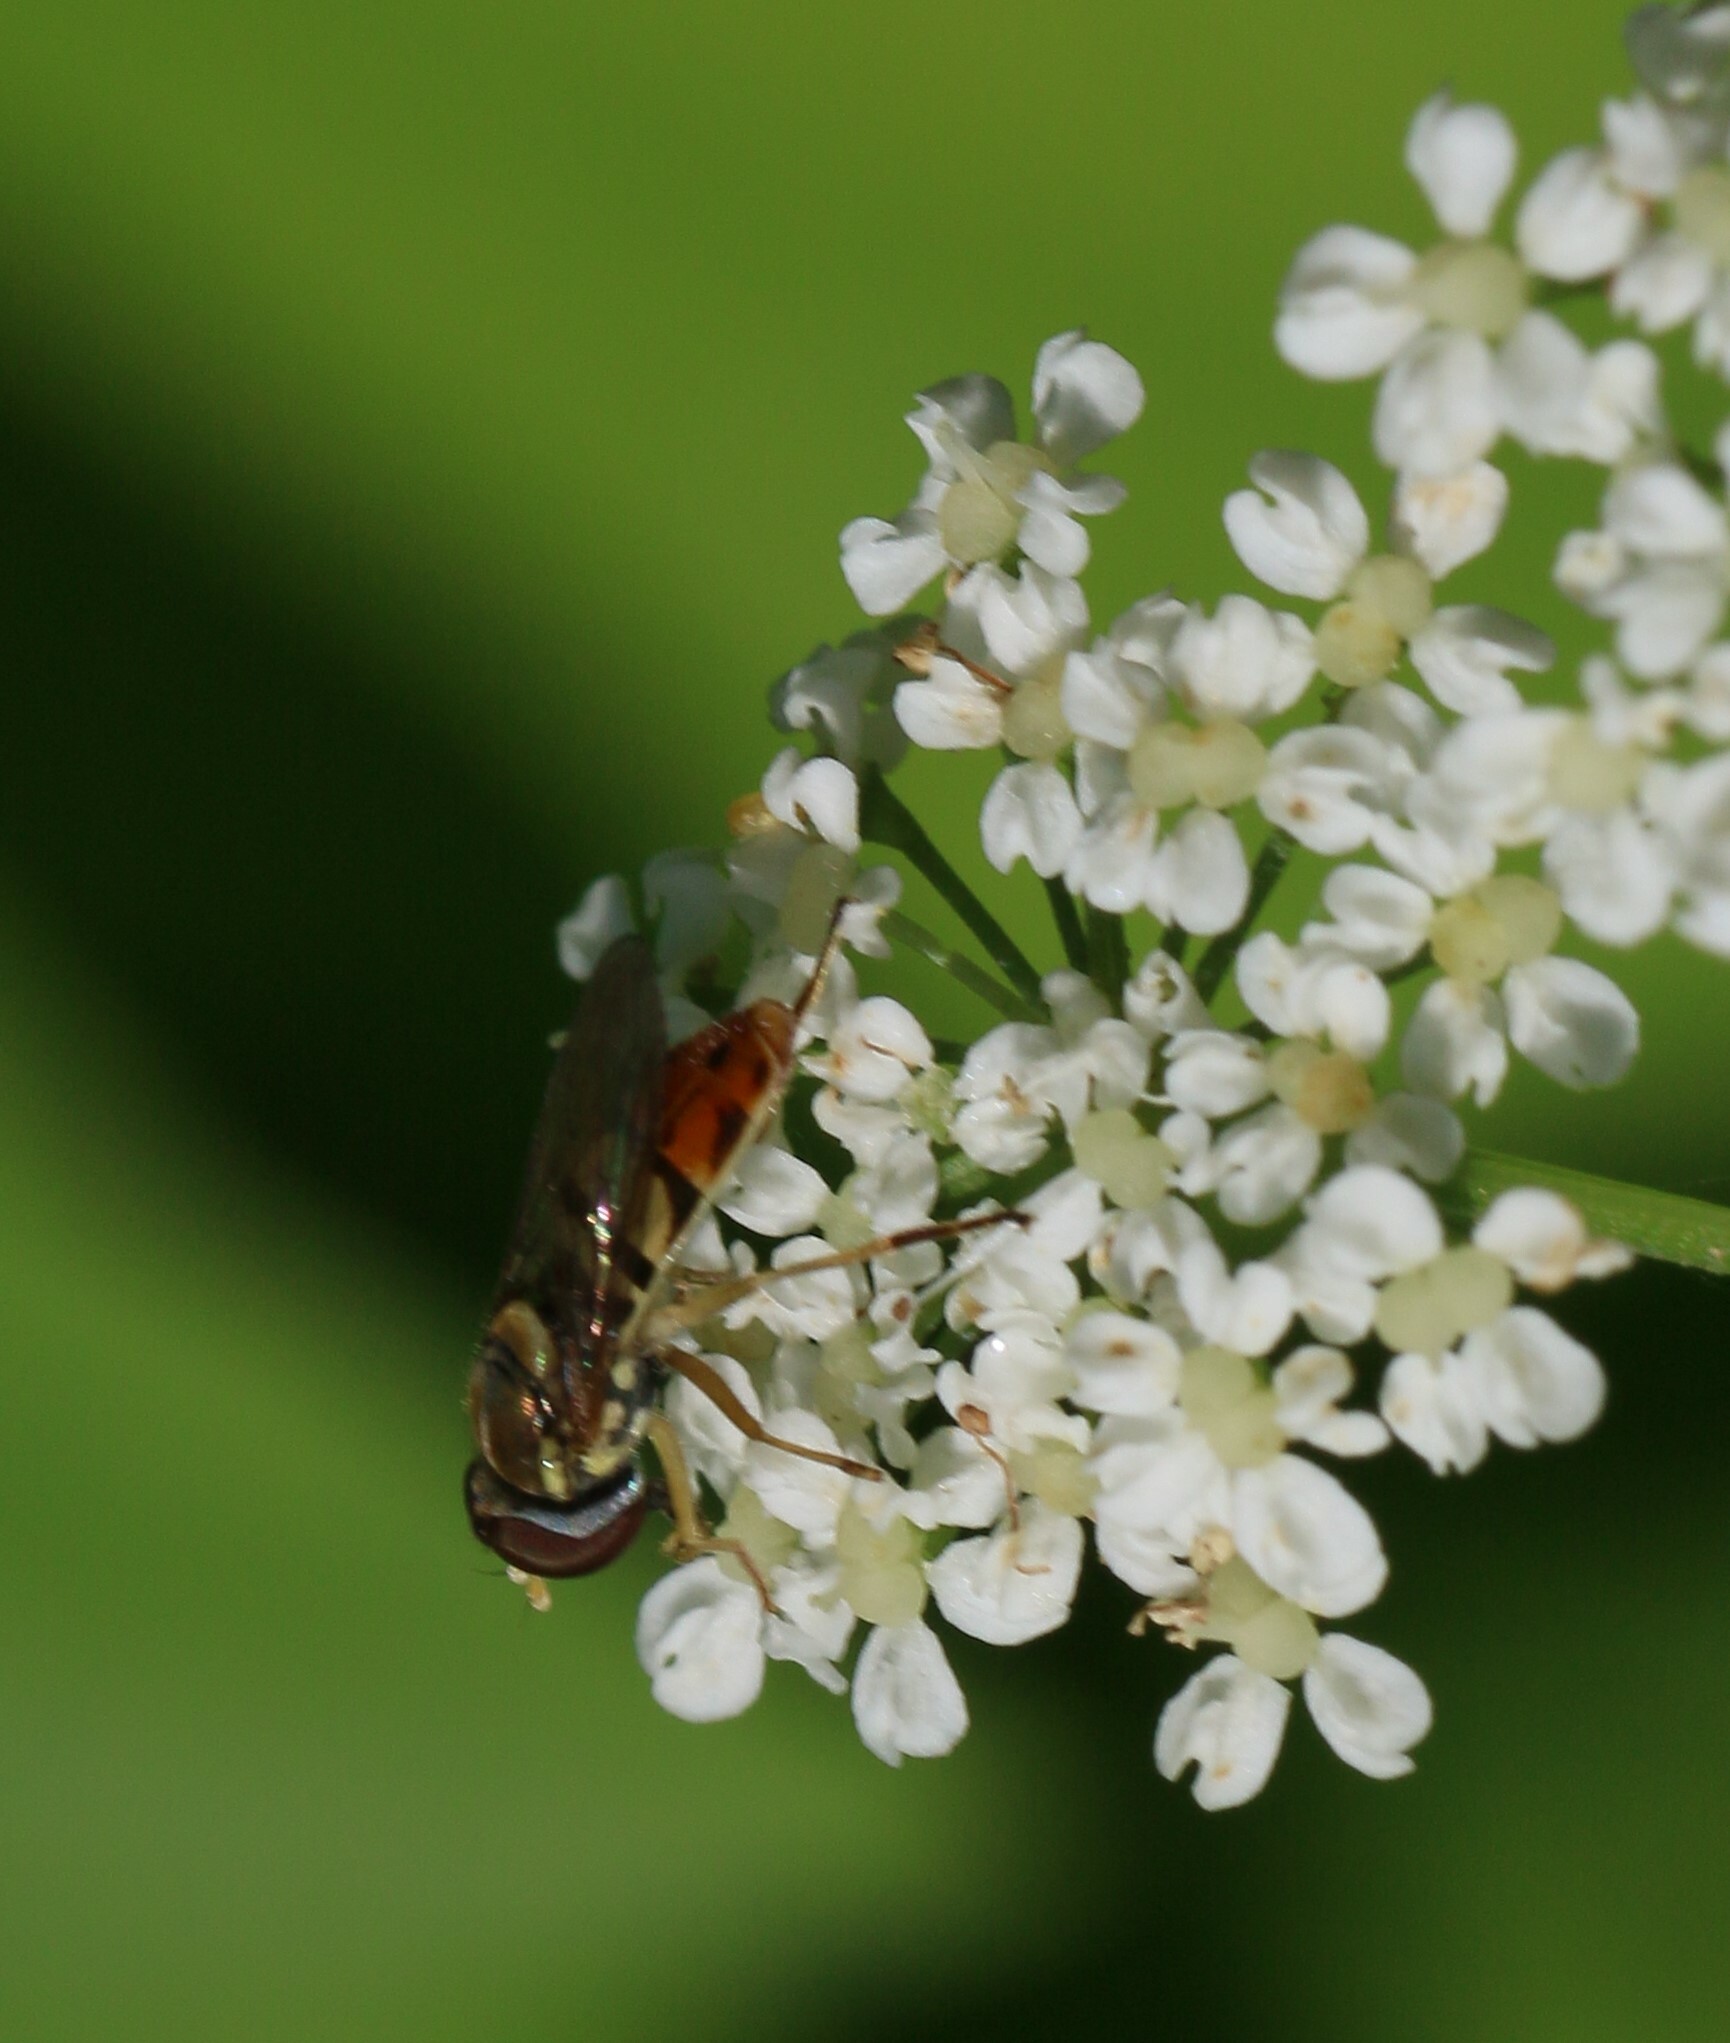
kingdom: Animalia
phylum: Arthropoda
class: Insecta
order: Diptera
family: Syrphidae
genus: Toxomerus
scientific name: Toxomerus marginatus
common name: Syrphid fly
